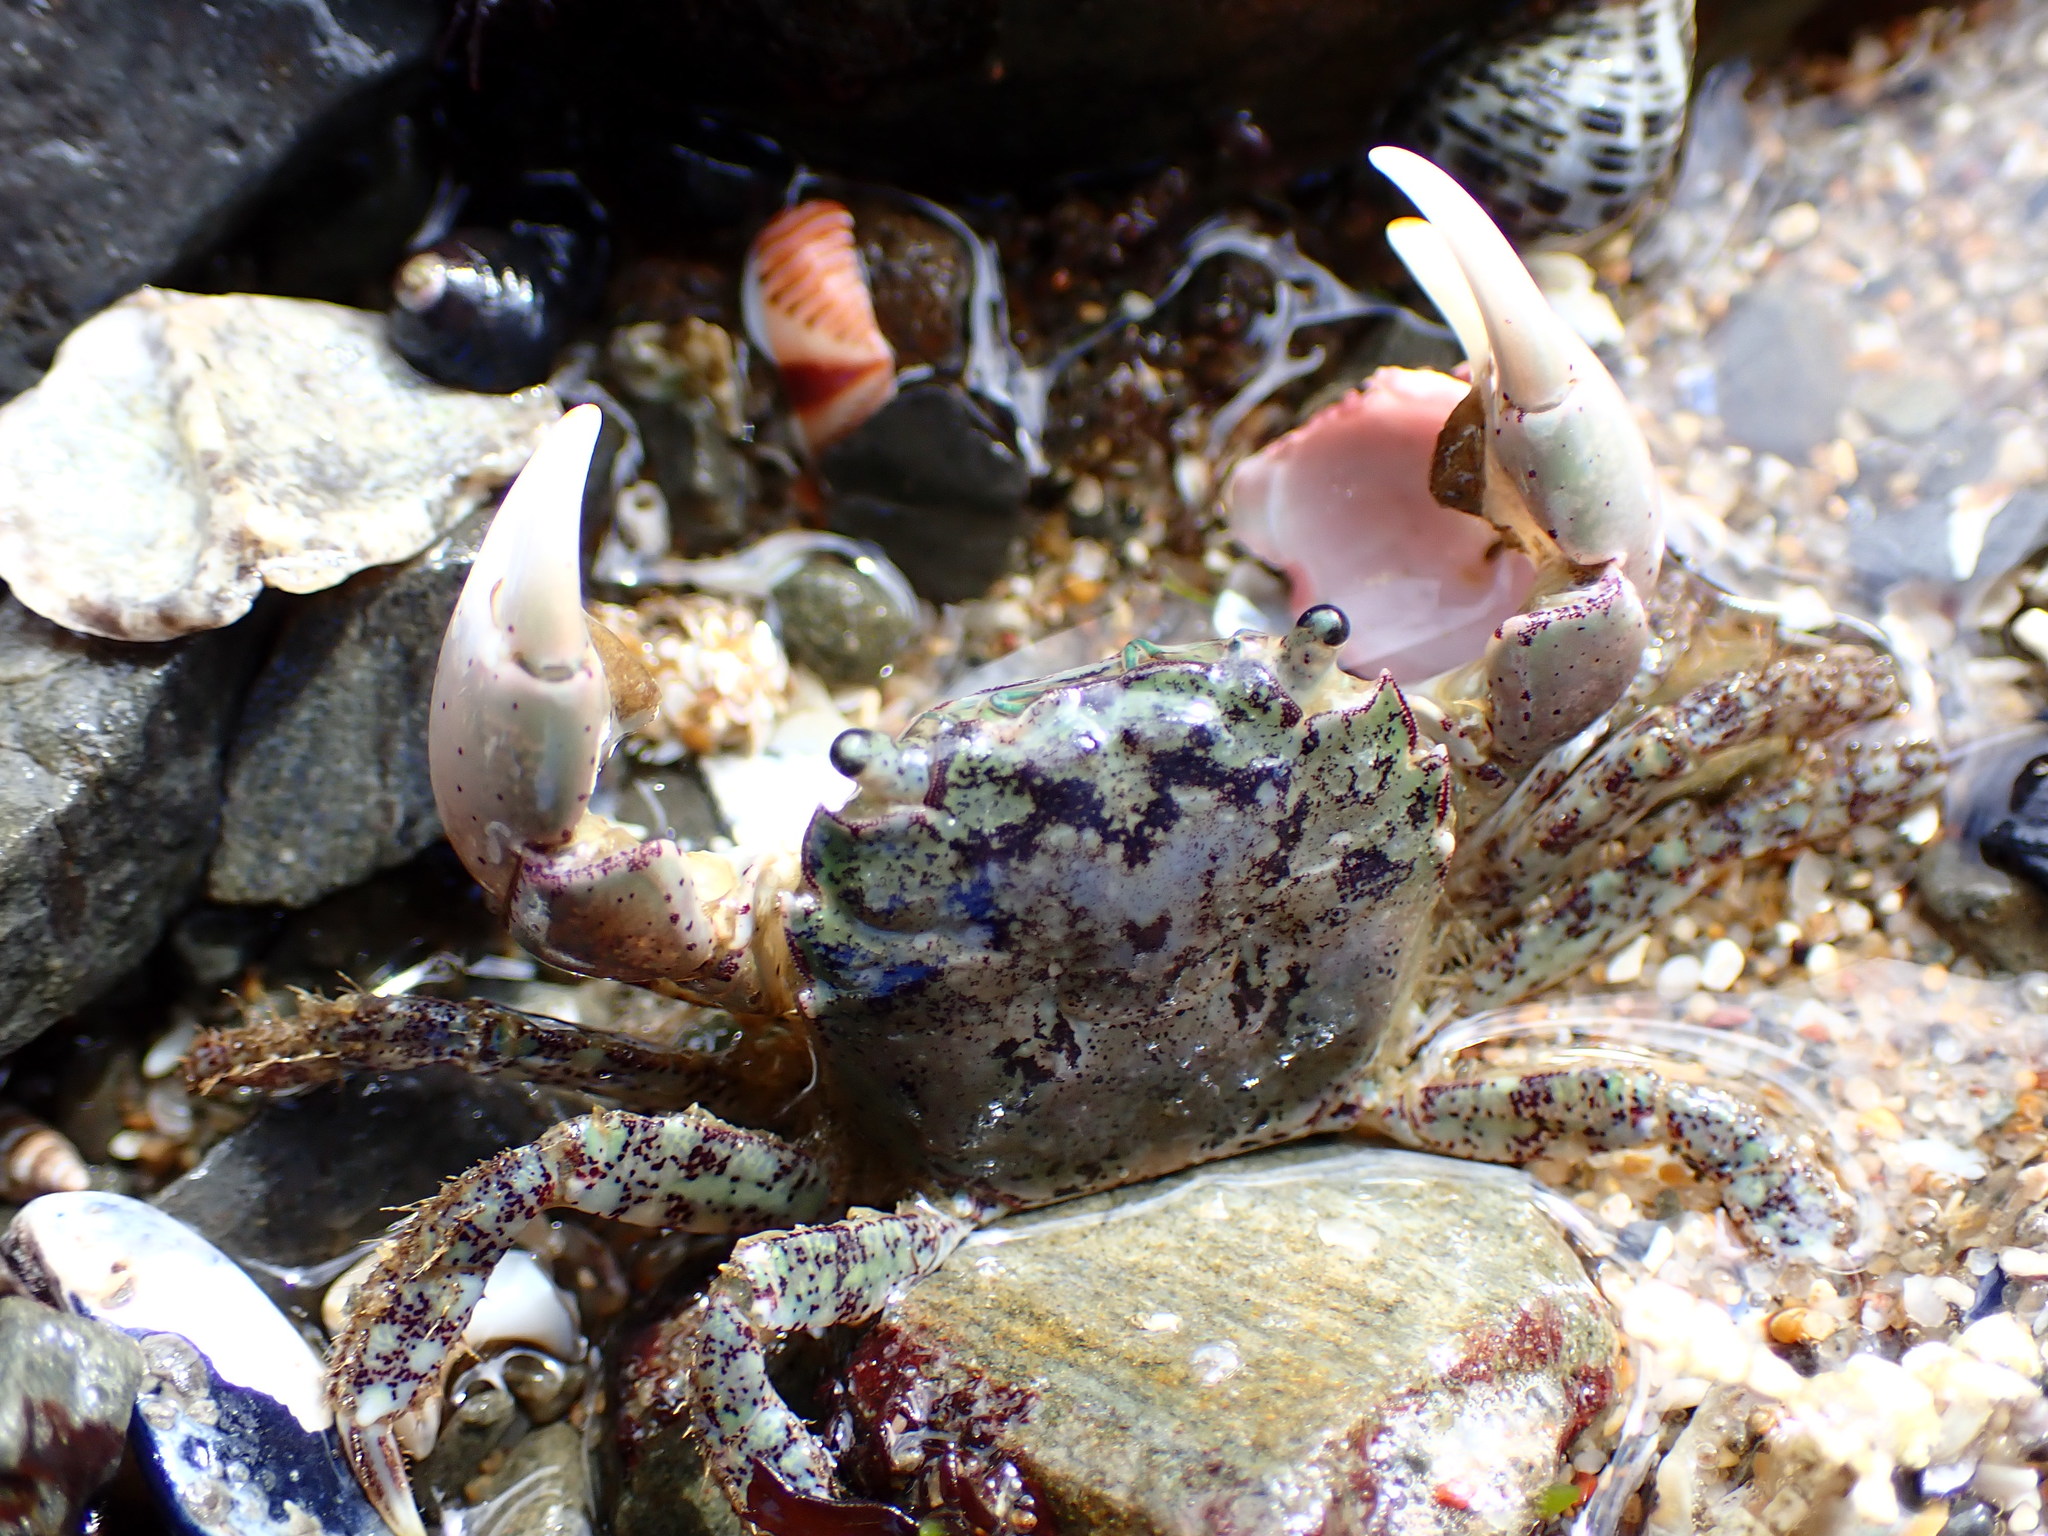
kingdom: Animalia
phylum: Arthropoda
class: Malacostraca
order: Decapoda
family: Varunidae
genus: Hemigrapsus
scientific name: Hemigrapsus oregonensis
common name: Yellow shore crab
